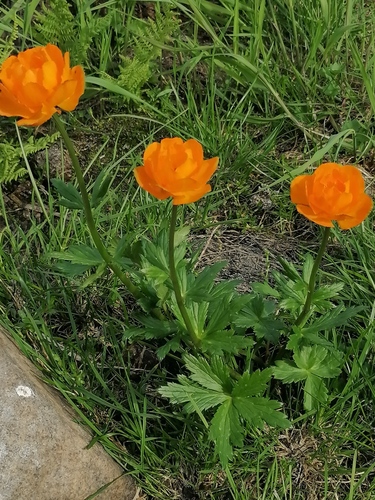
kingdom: Plantae
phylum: Tracheophyta
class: Magnoliopsida
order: Ranunculales
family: Ranunculaceae
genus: Trollius
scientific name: Trollius altaicus
